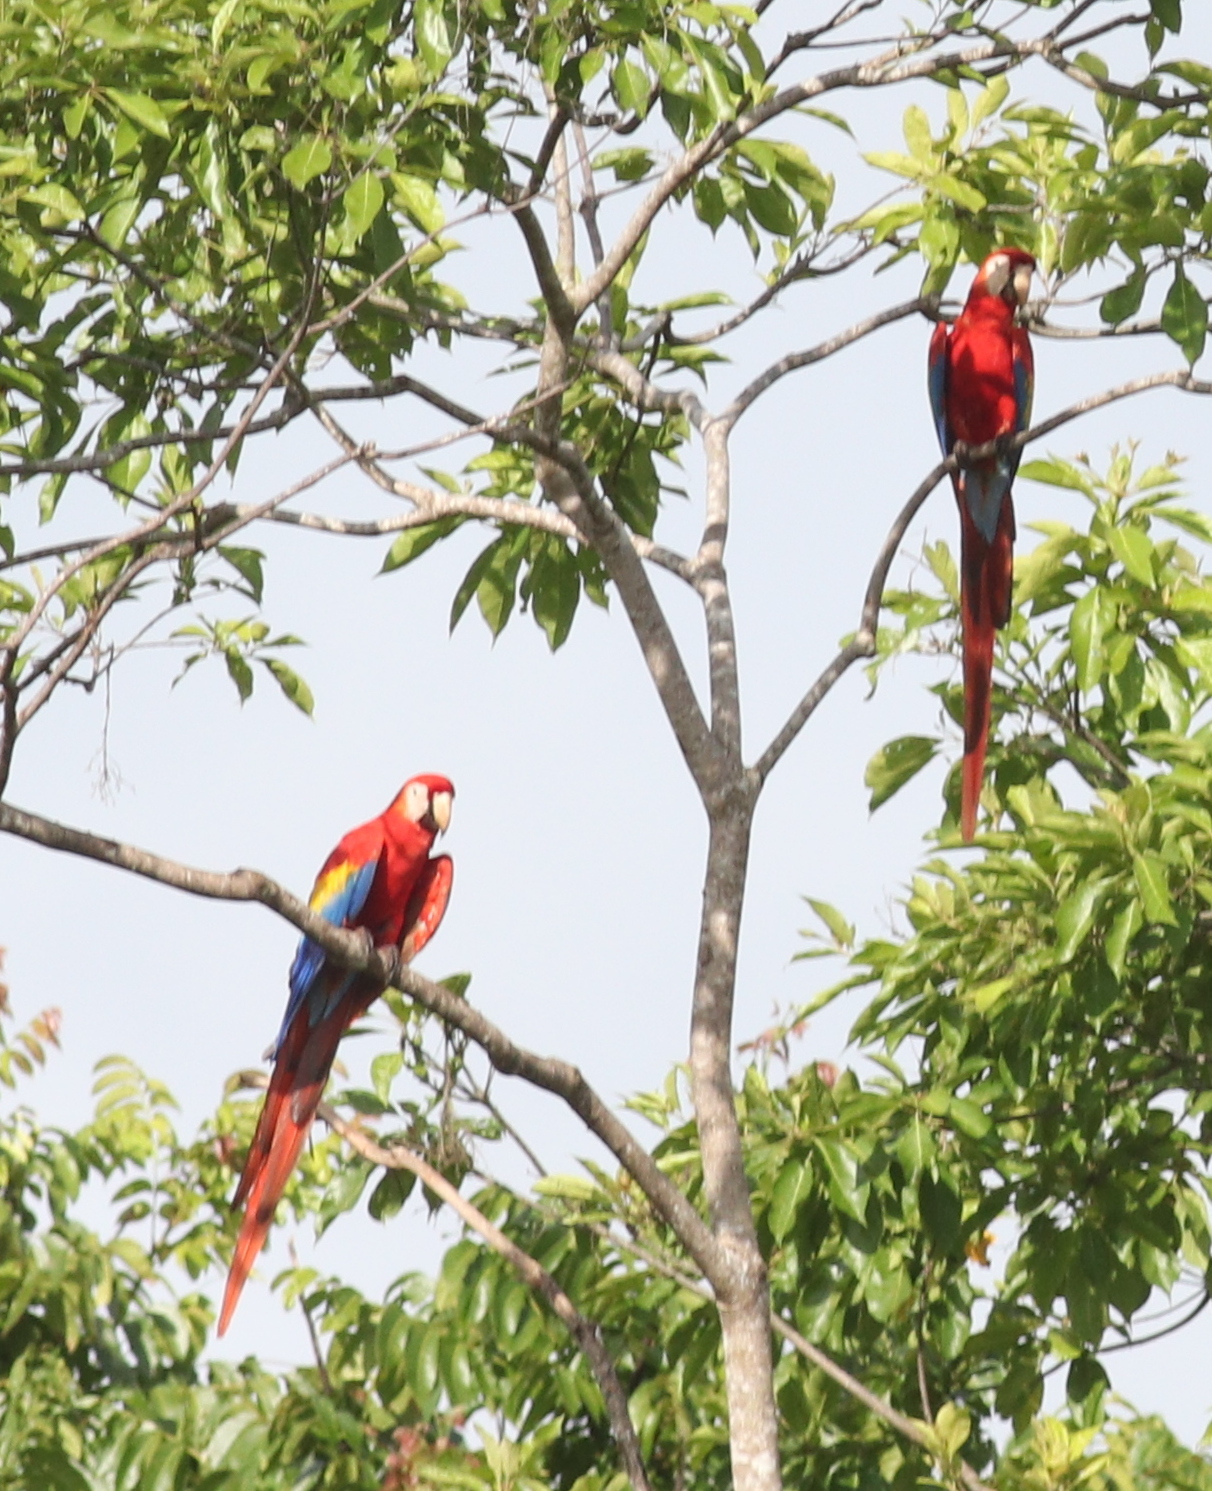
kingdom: Animalia
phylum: Chordata
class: Aves
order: Psittaciformes
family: Psittacidae
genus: Ara
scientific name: Ara macao
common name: Scarlet macaw
